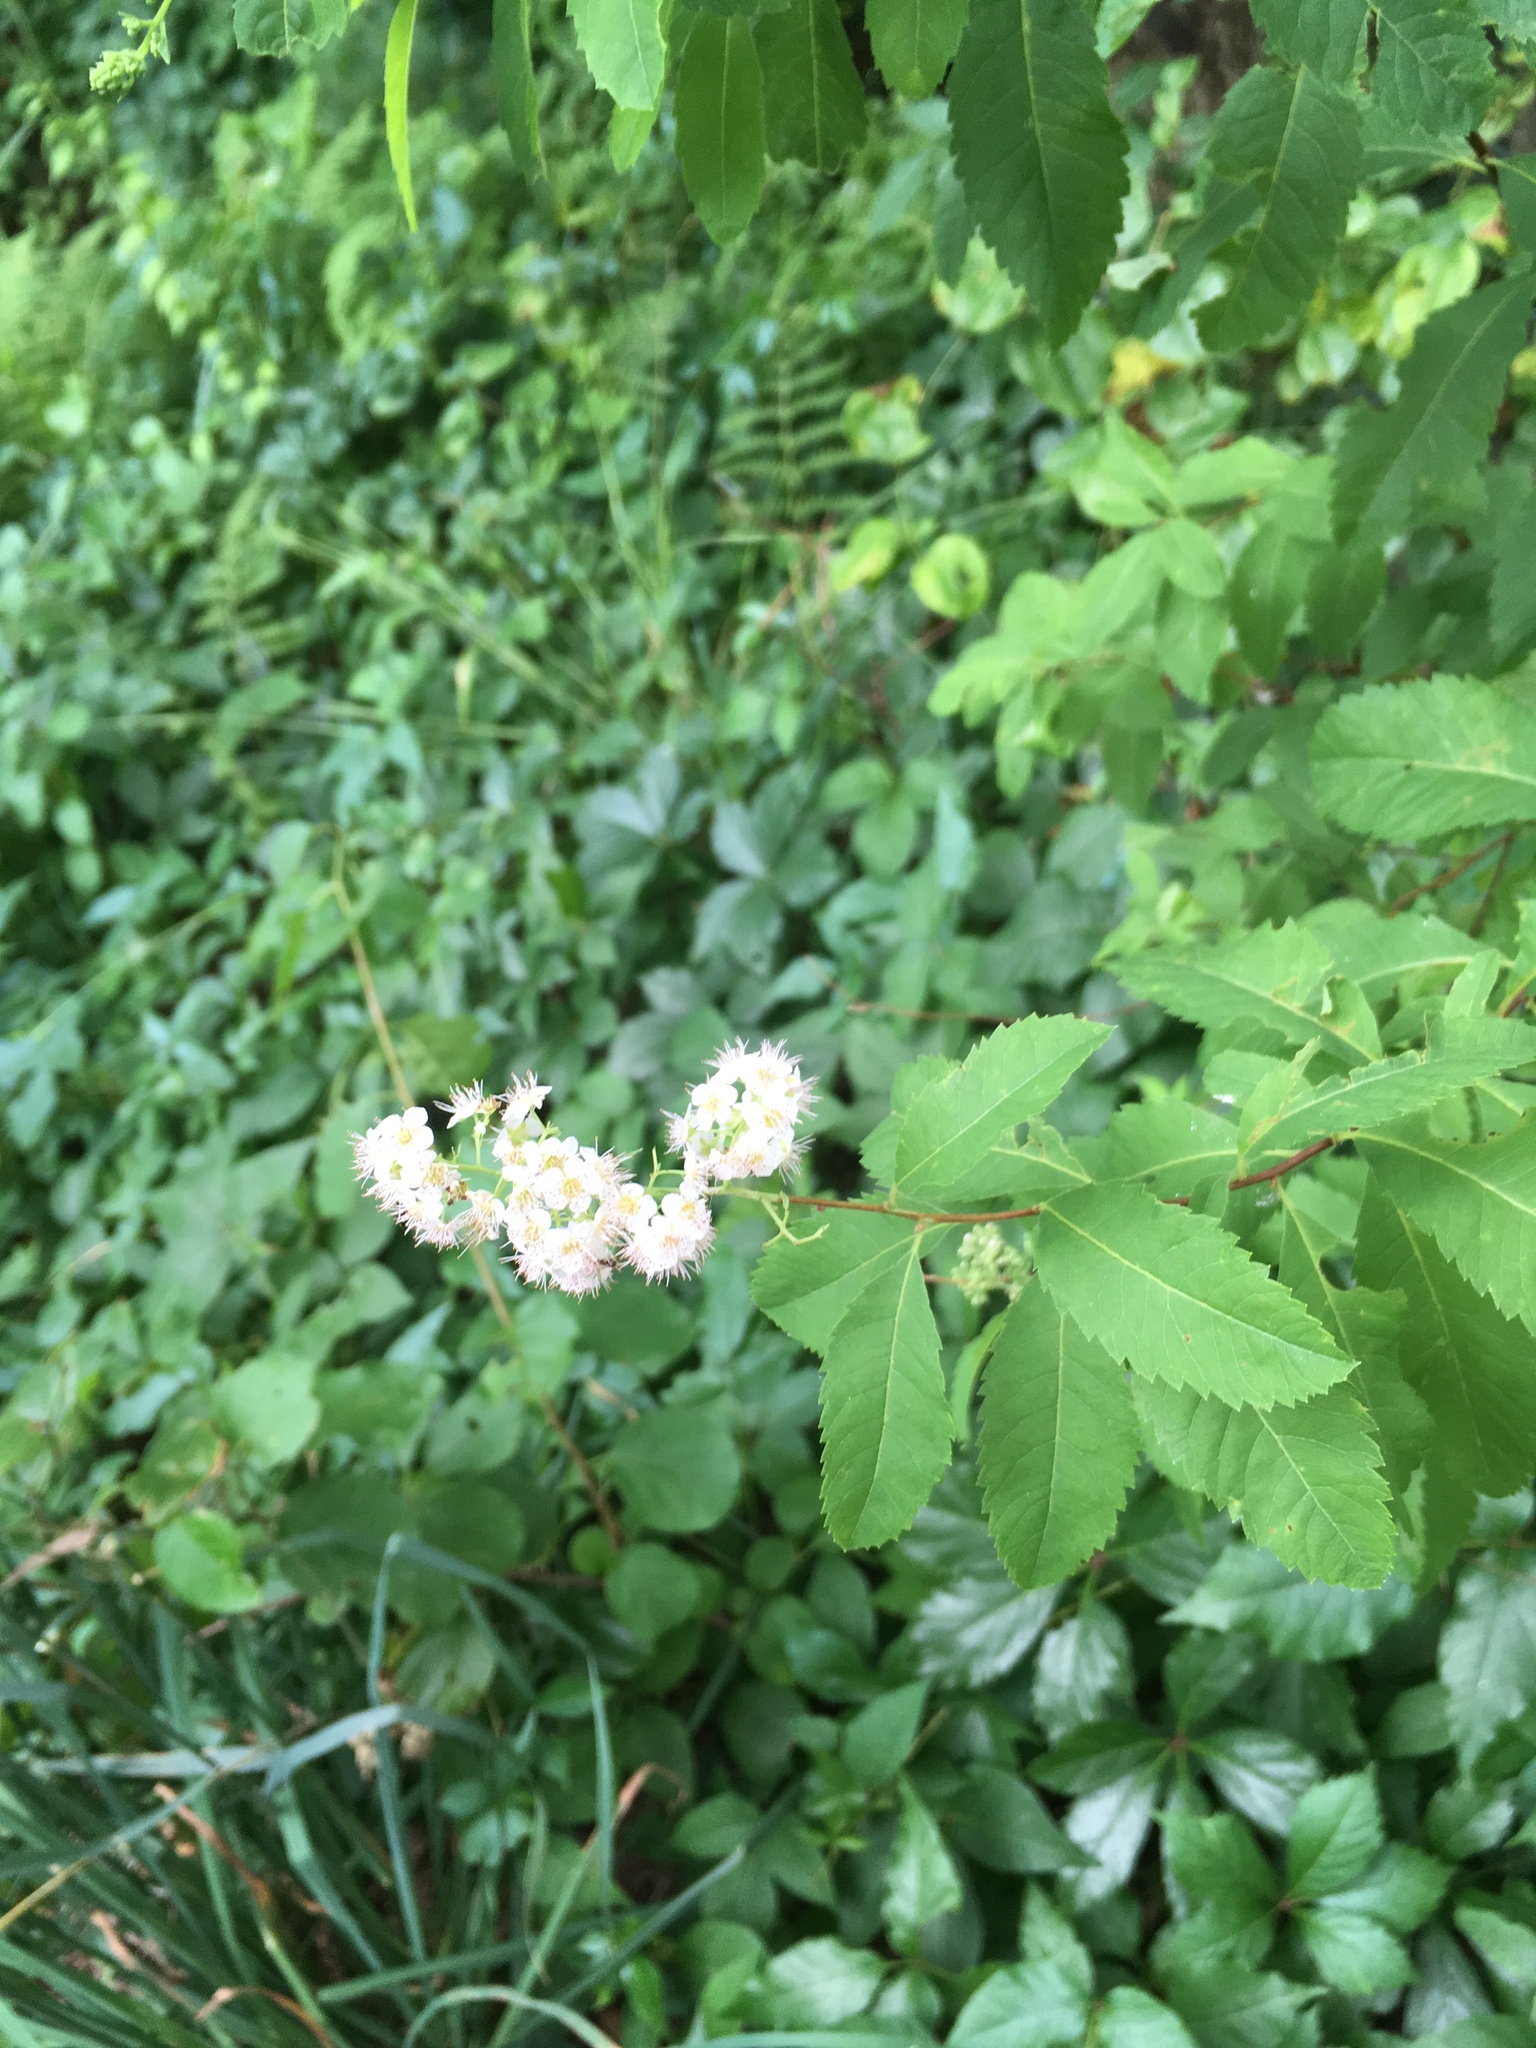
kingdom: Plantae
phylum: Tracheophyta
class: Magnoliopsida
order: Rosales
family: Rosaceae
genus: Spiraea
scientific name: Spiraea alba
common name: Pale bridewort
